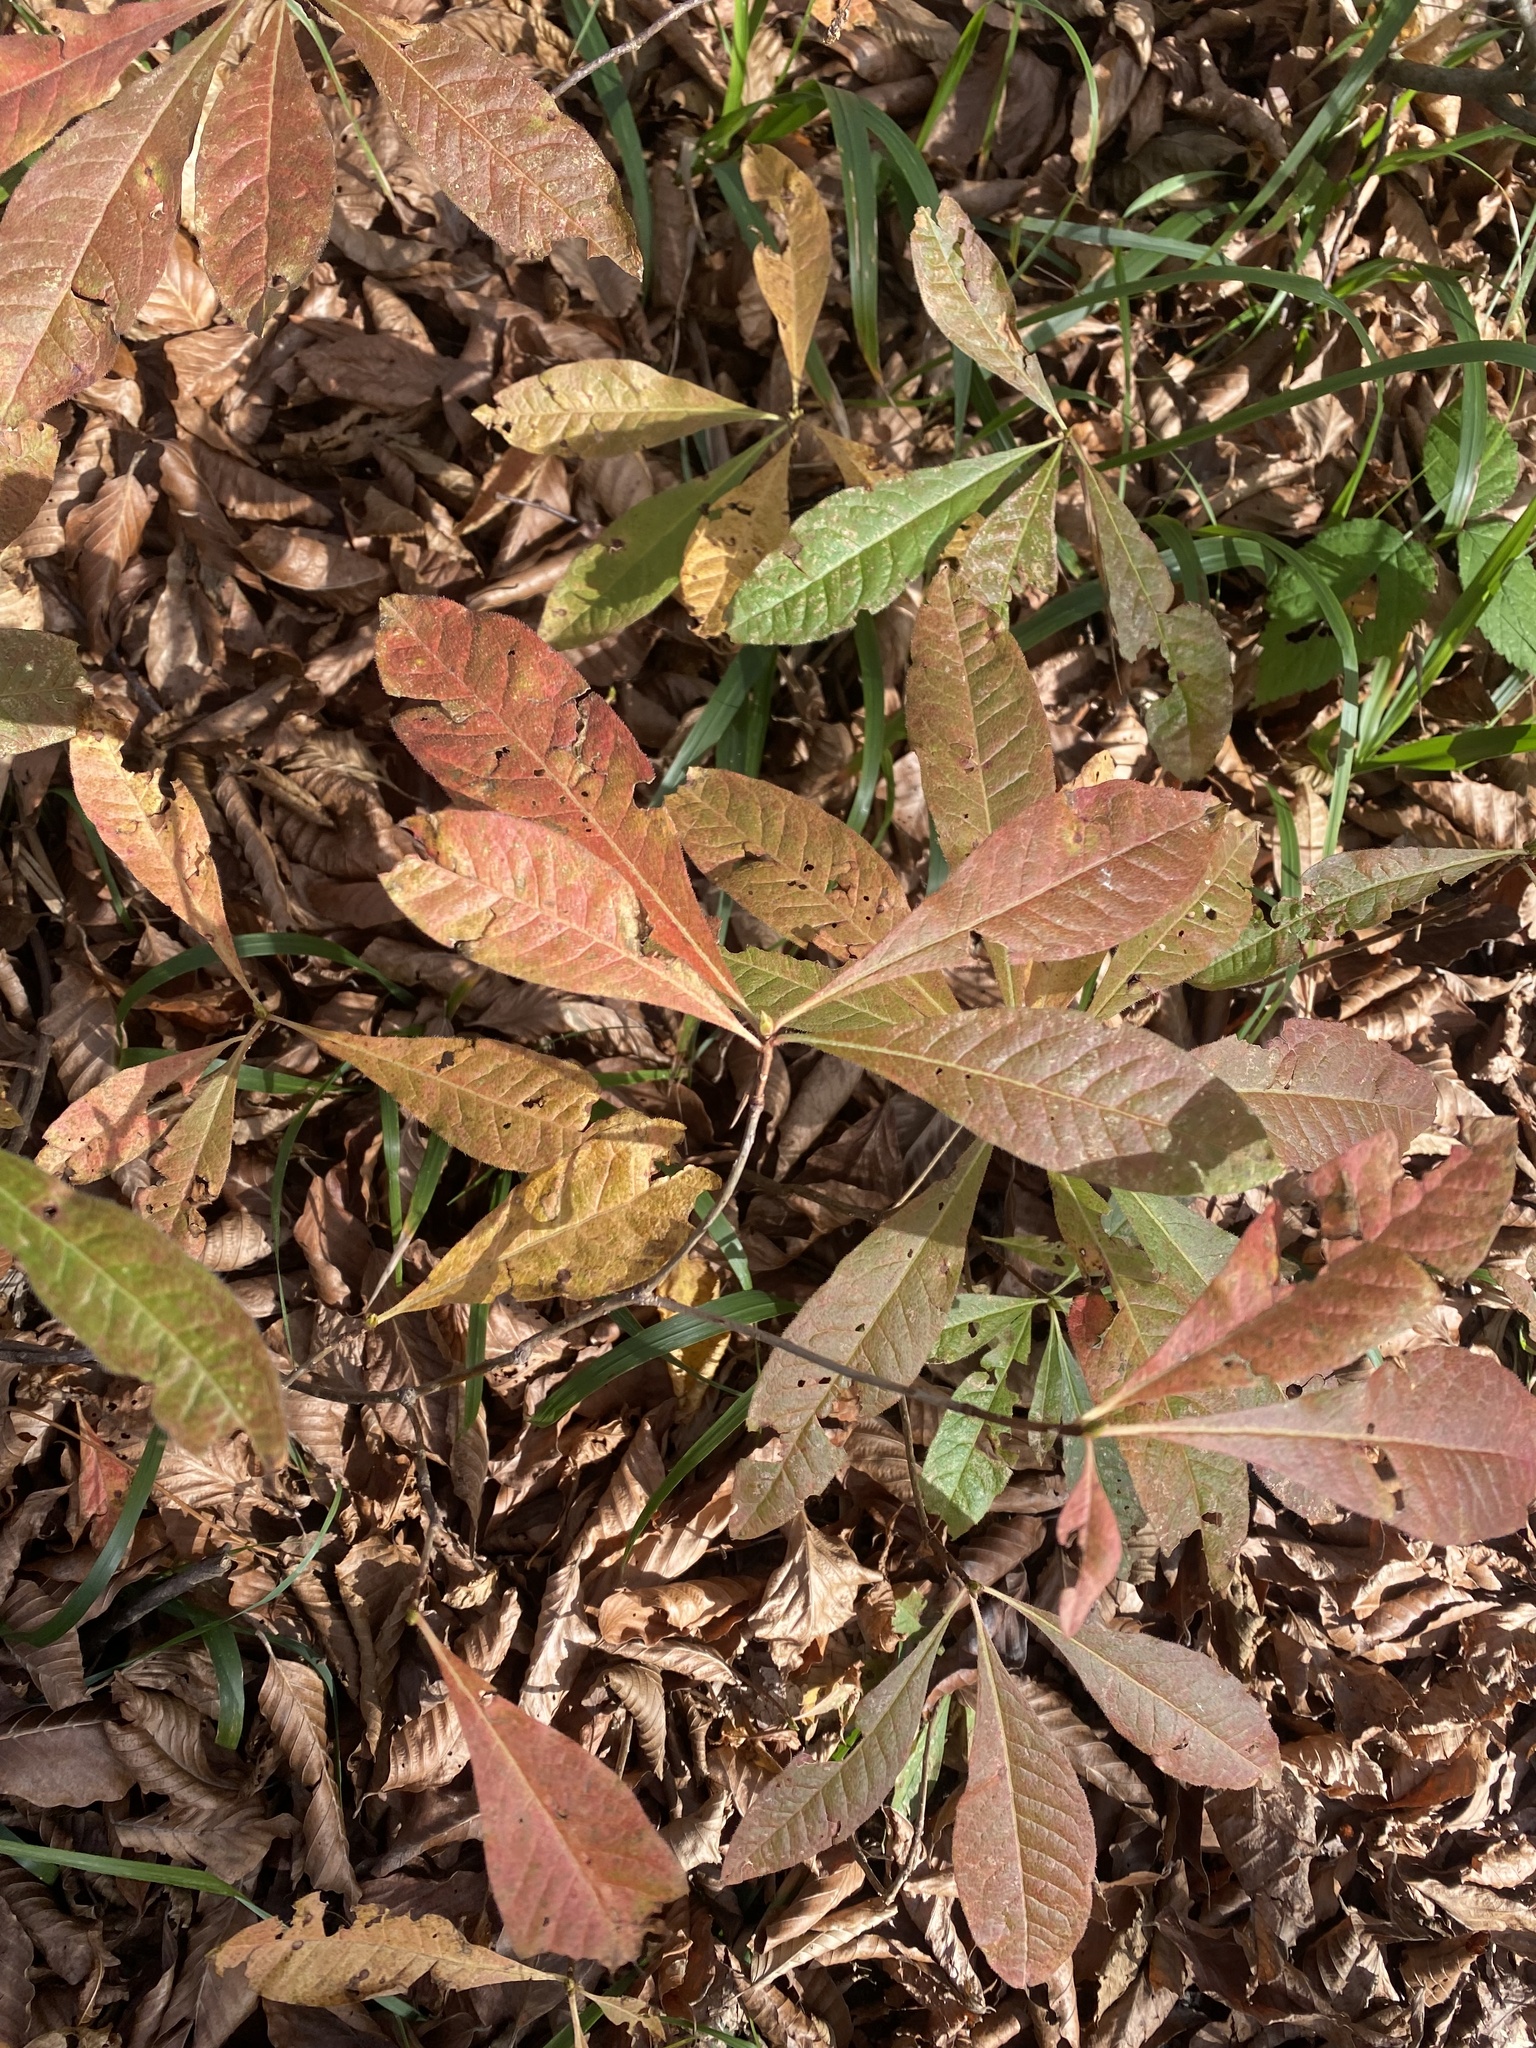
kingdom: Plantae
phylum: Tracheophyta
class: Magnoliopsida
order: Ericales
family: Ericaceae
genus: Rhododendron
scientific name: Rhododendron luteum
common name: Yellow azalea
